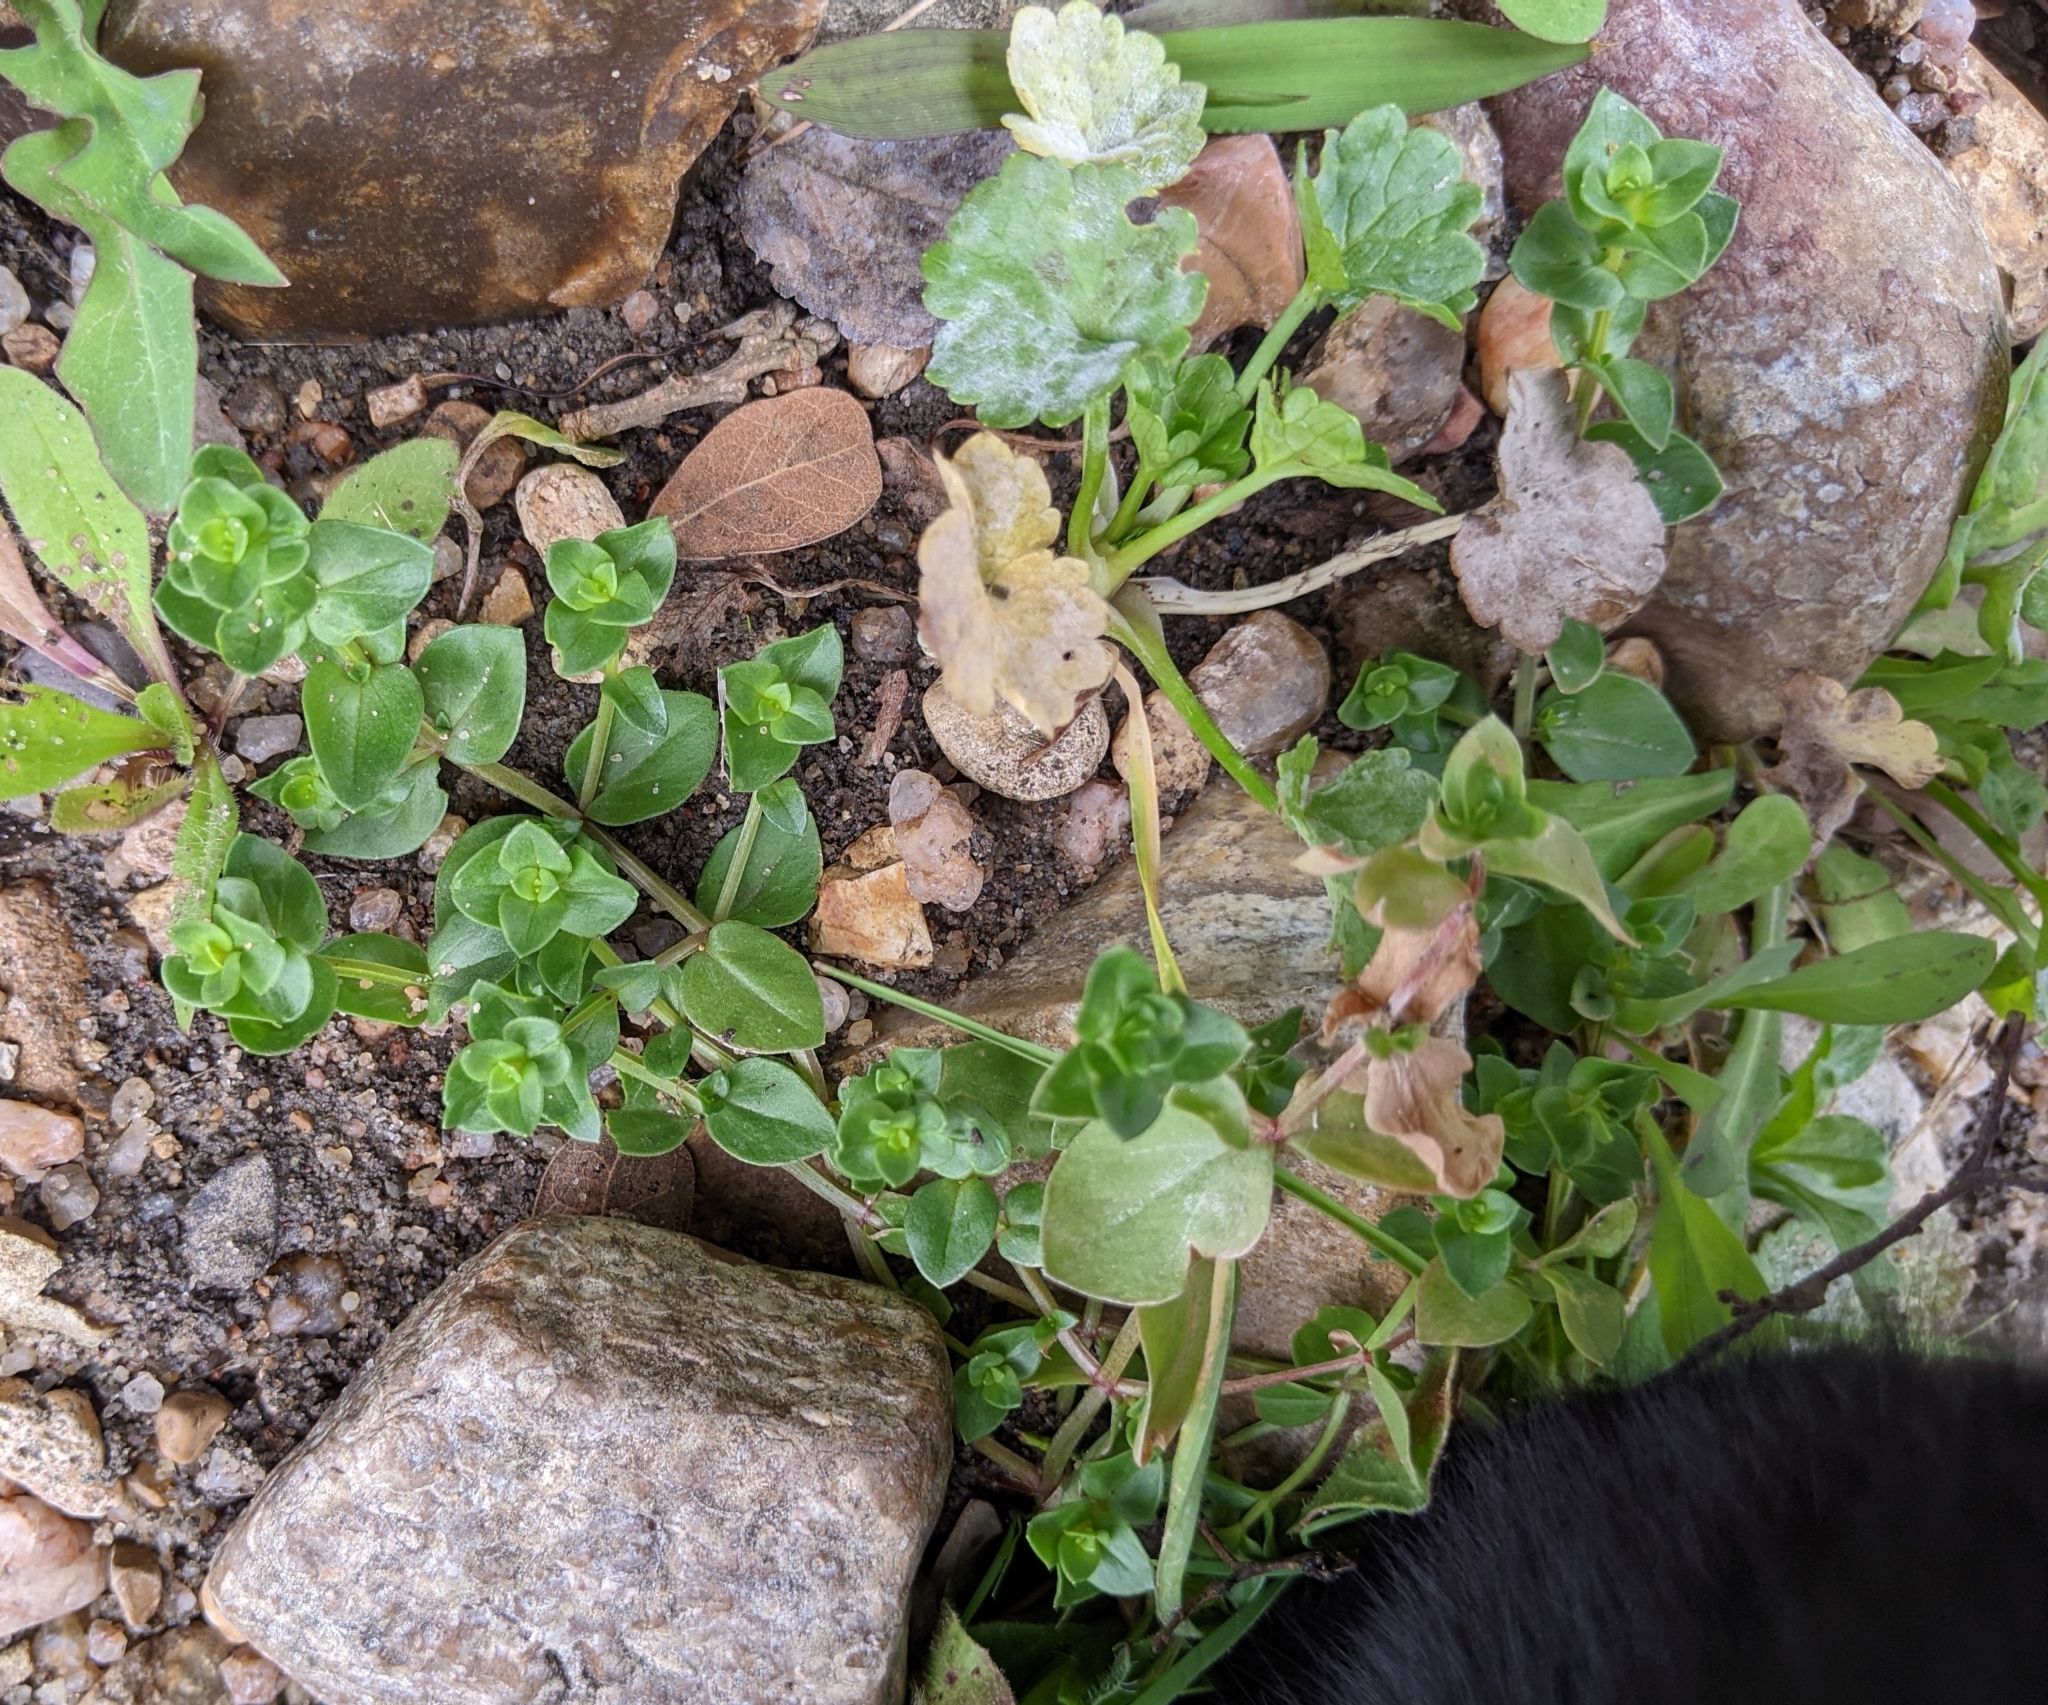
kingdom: Plantae
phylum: Tracheophyta
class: Magnoliopsida
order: Ericales
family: Primulaceae
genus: Lysimachia
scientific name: Lysimachia arvensis
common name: Scarlet pimpernel
